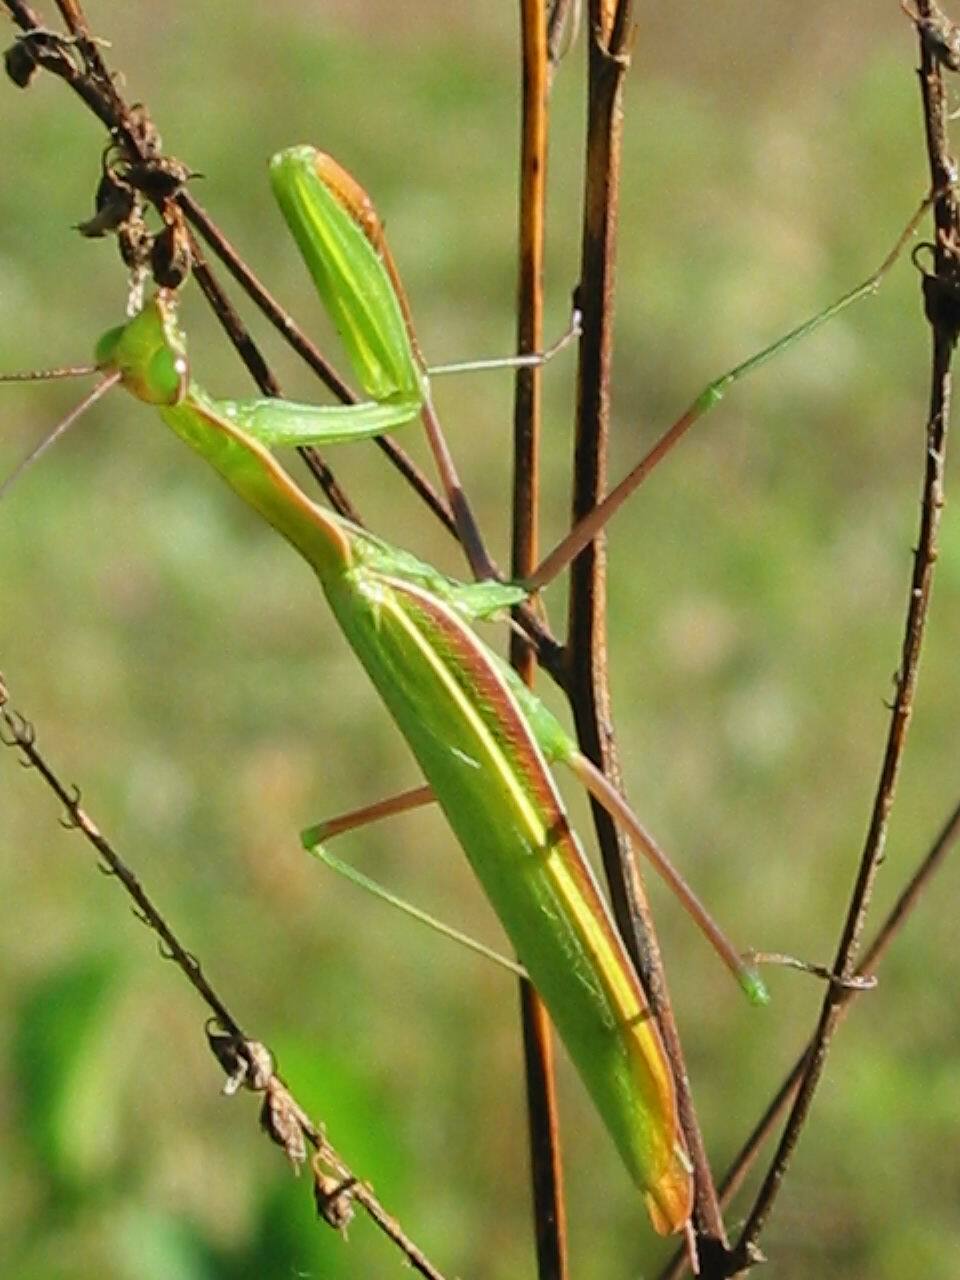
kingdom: Animalia
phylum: Arthropoda
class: Insecta
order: Mantodea
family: Mantidae
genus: Mantis
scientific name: Mantis religiosa
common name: Praying mantis
